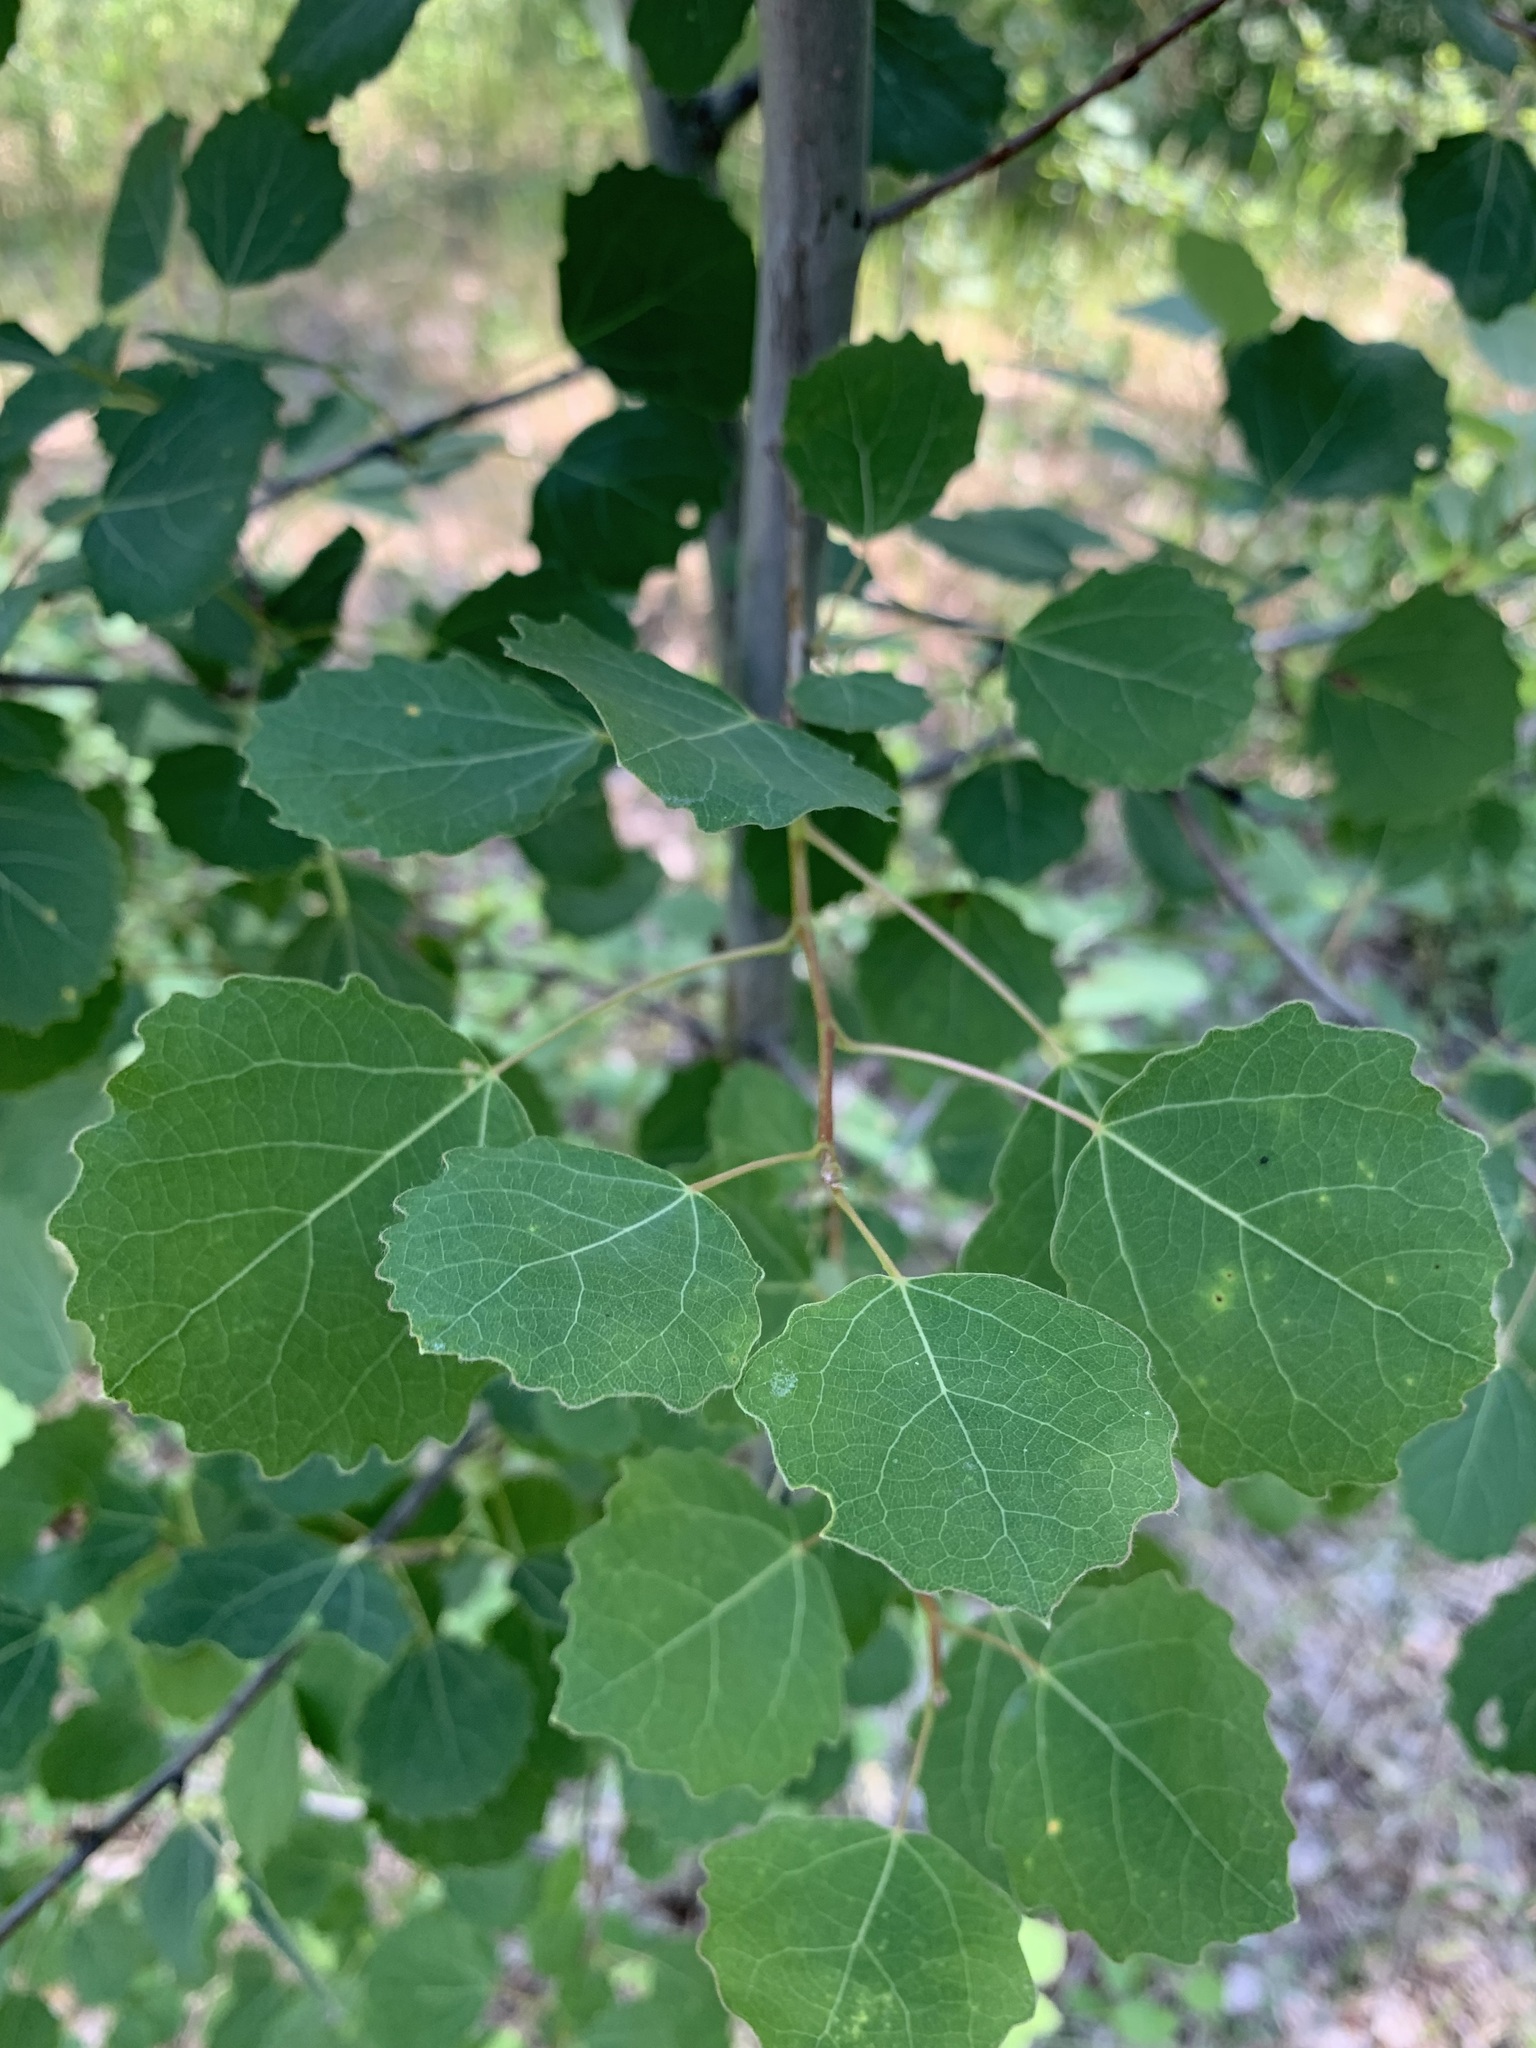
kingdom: Plantae
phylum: Tracheophyta
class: Magnoliopsida
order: Malpighiales
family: Salicaceae
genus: Populus
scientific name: Populus tremula
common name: European aspen
